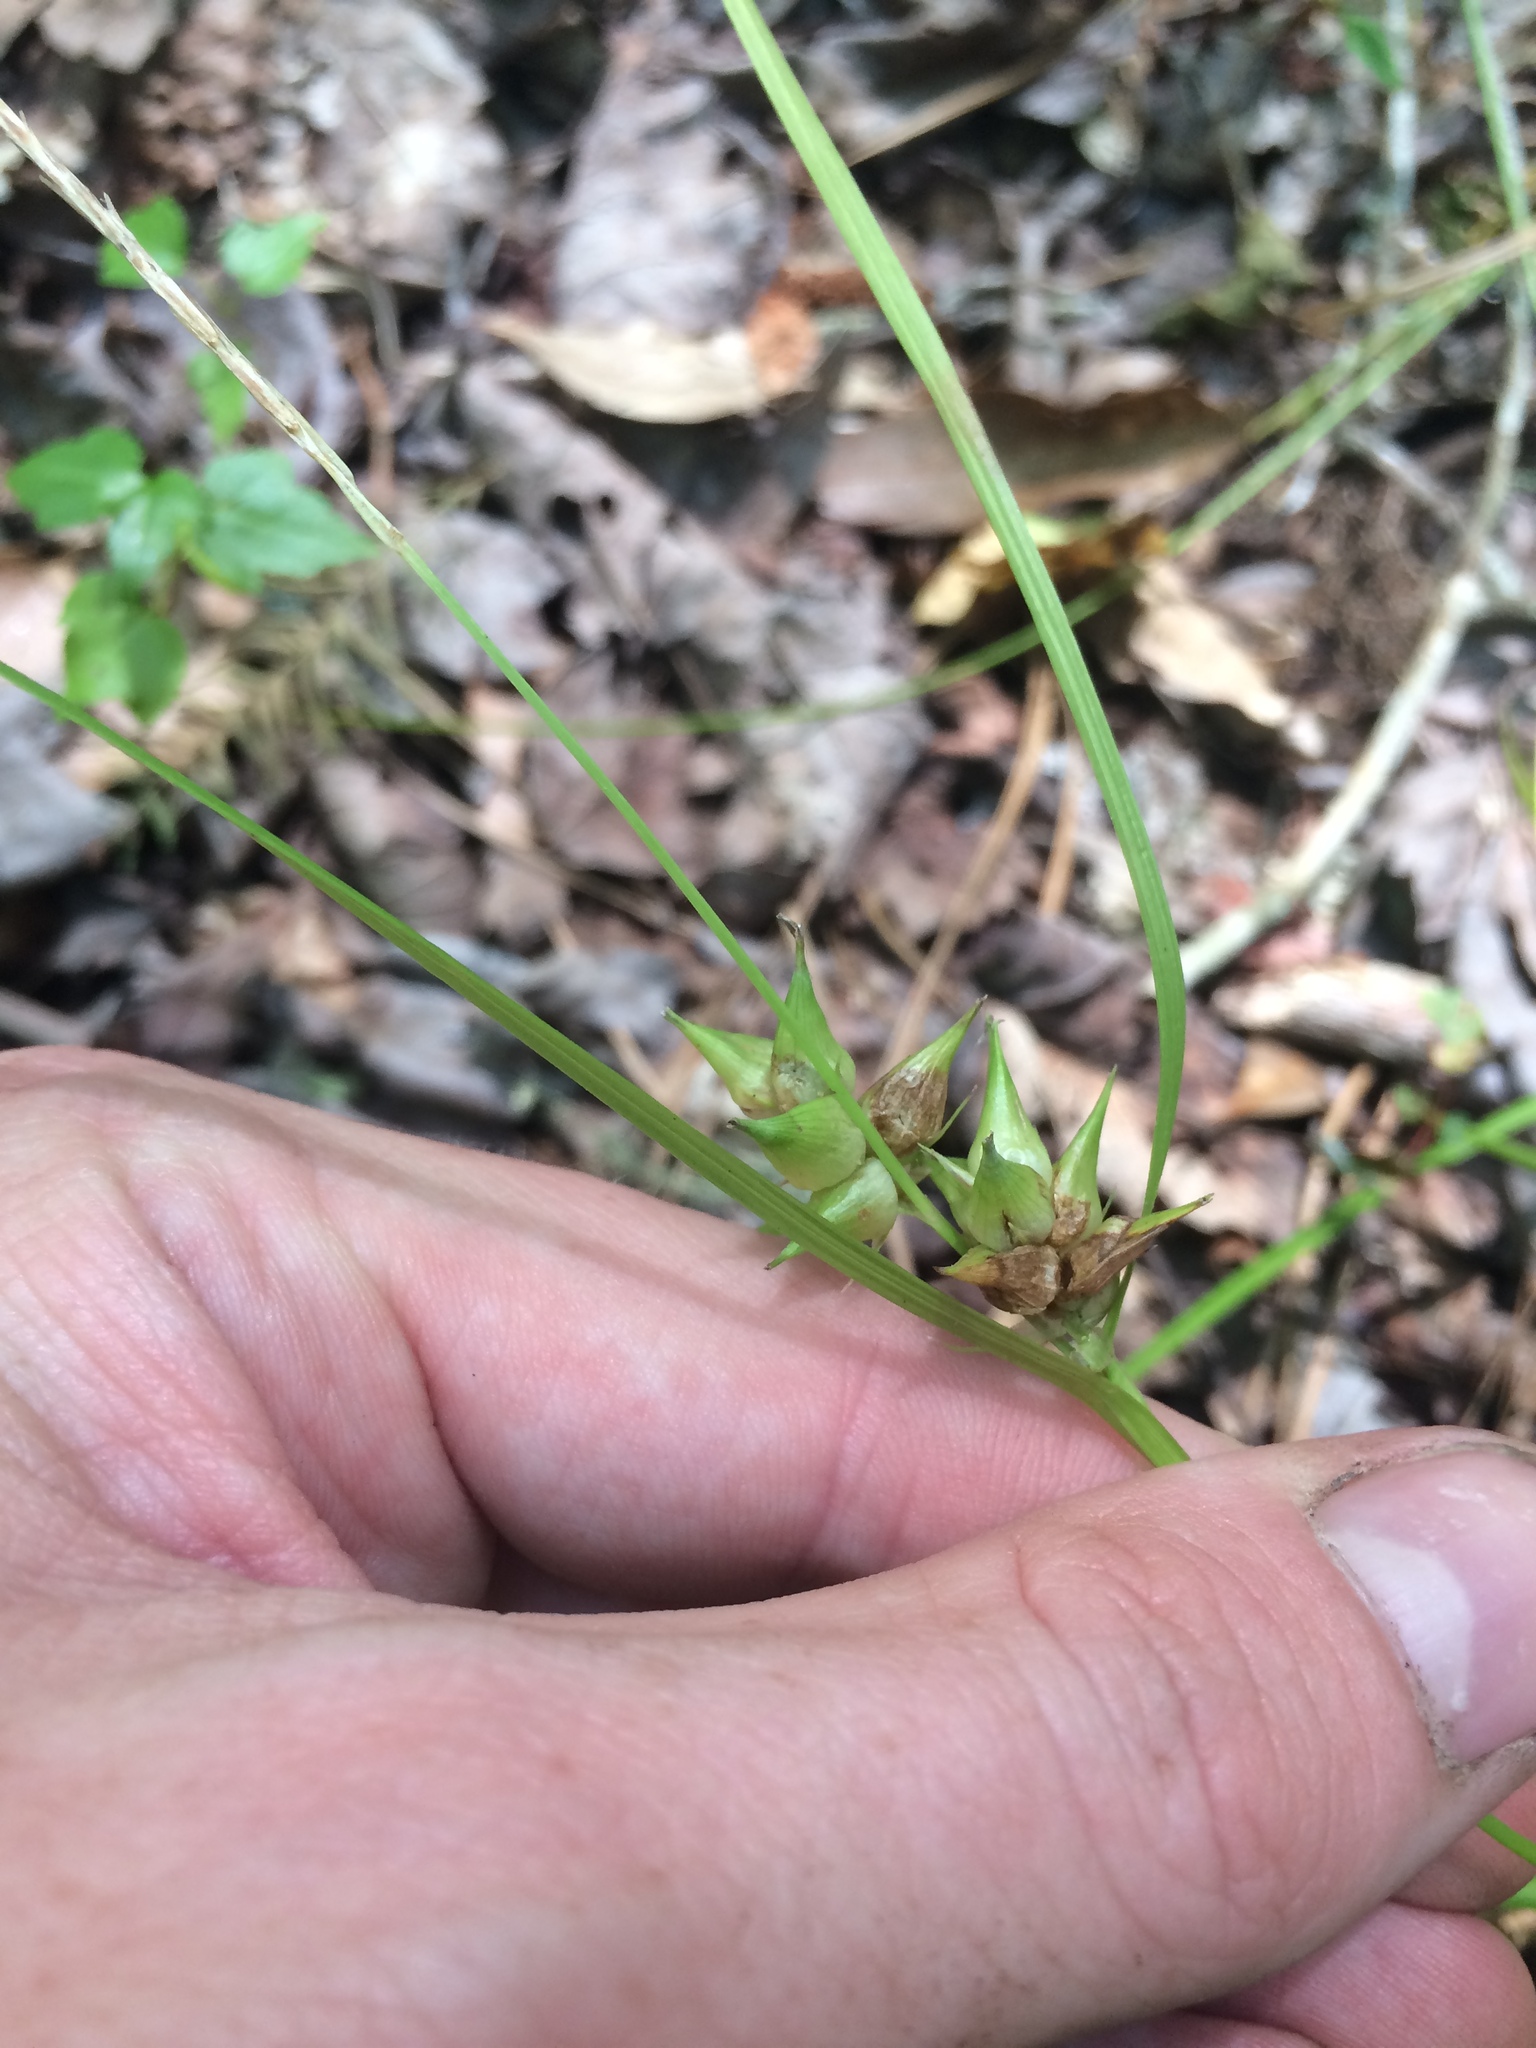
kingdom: Plantae
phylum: Tracheophyta
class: Liliopsida
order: Poales
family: Cyperaceae
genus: Carex
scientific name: Carex intumescens
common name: Greater bladder sedge
